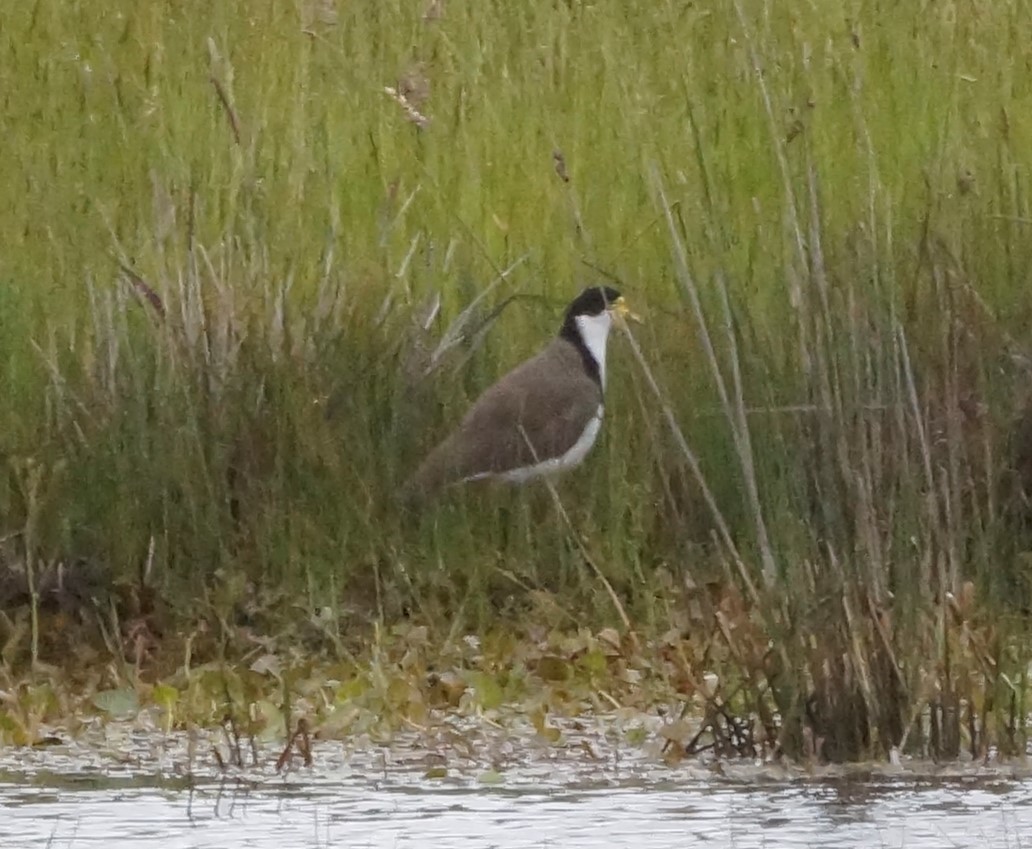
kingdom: Animalia
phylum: Chordata
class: Aves
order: Charadriiformes
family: Charadriidae
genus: Vanellus
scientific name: Vanellus miles
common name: Masked lapwing
